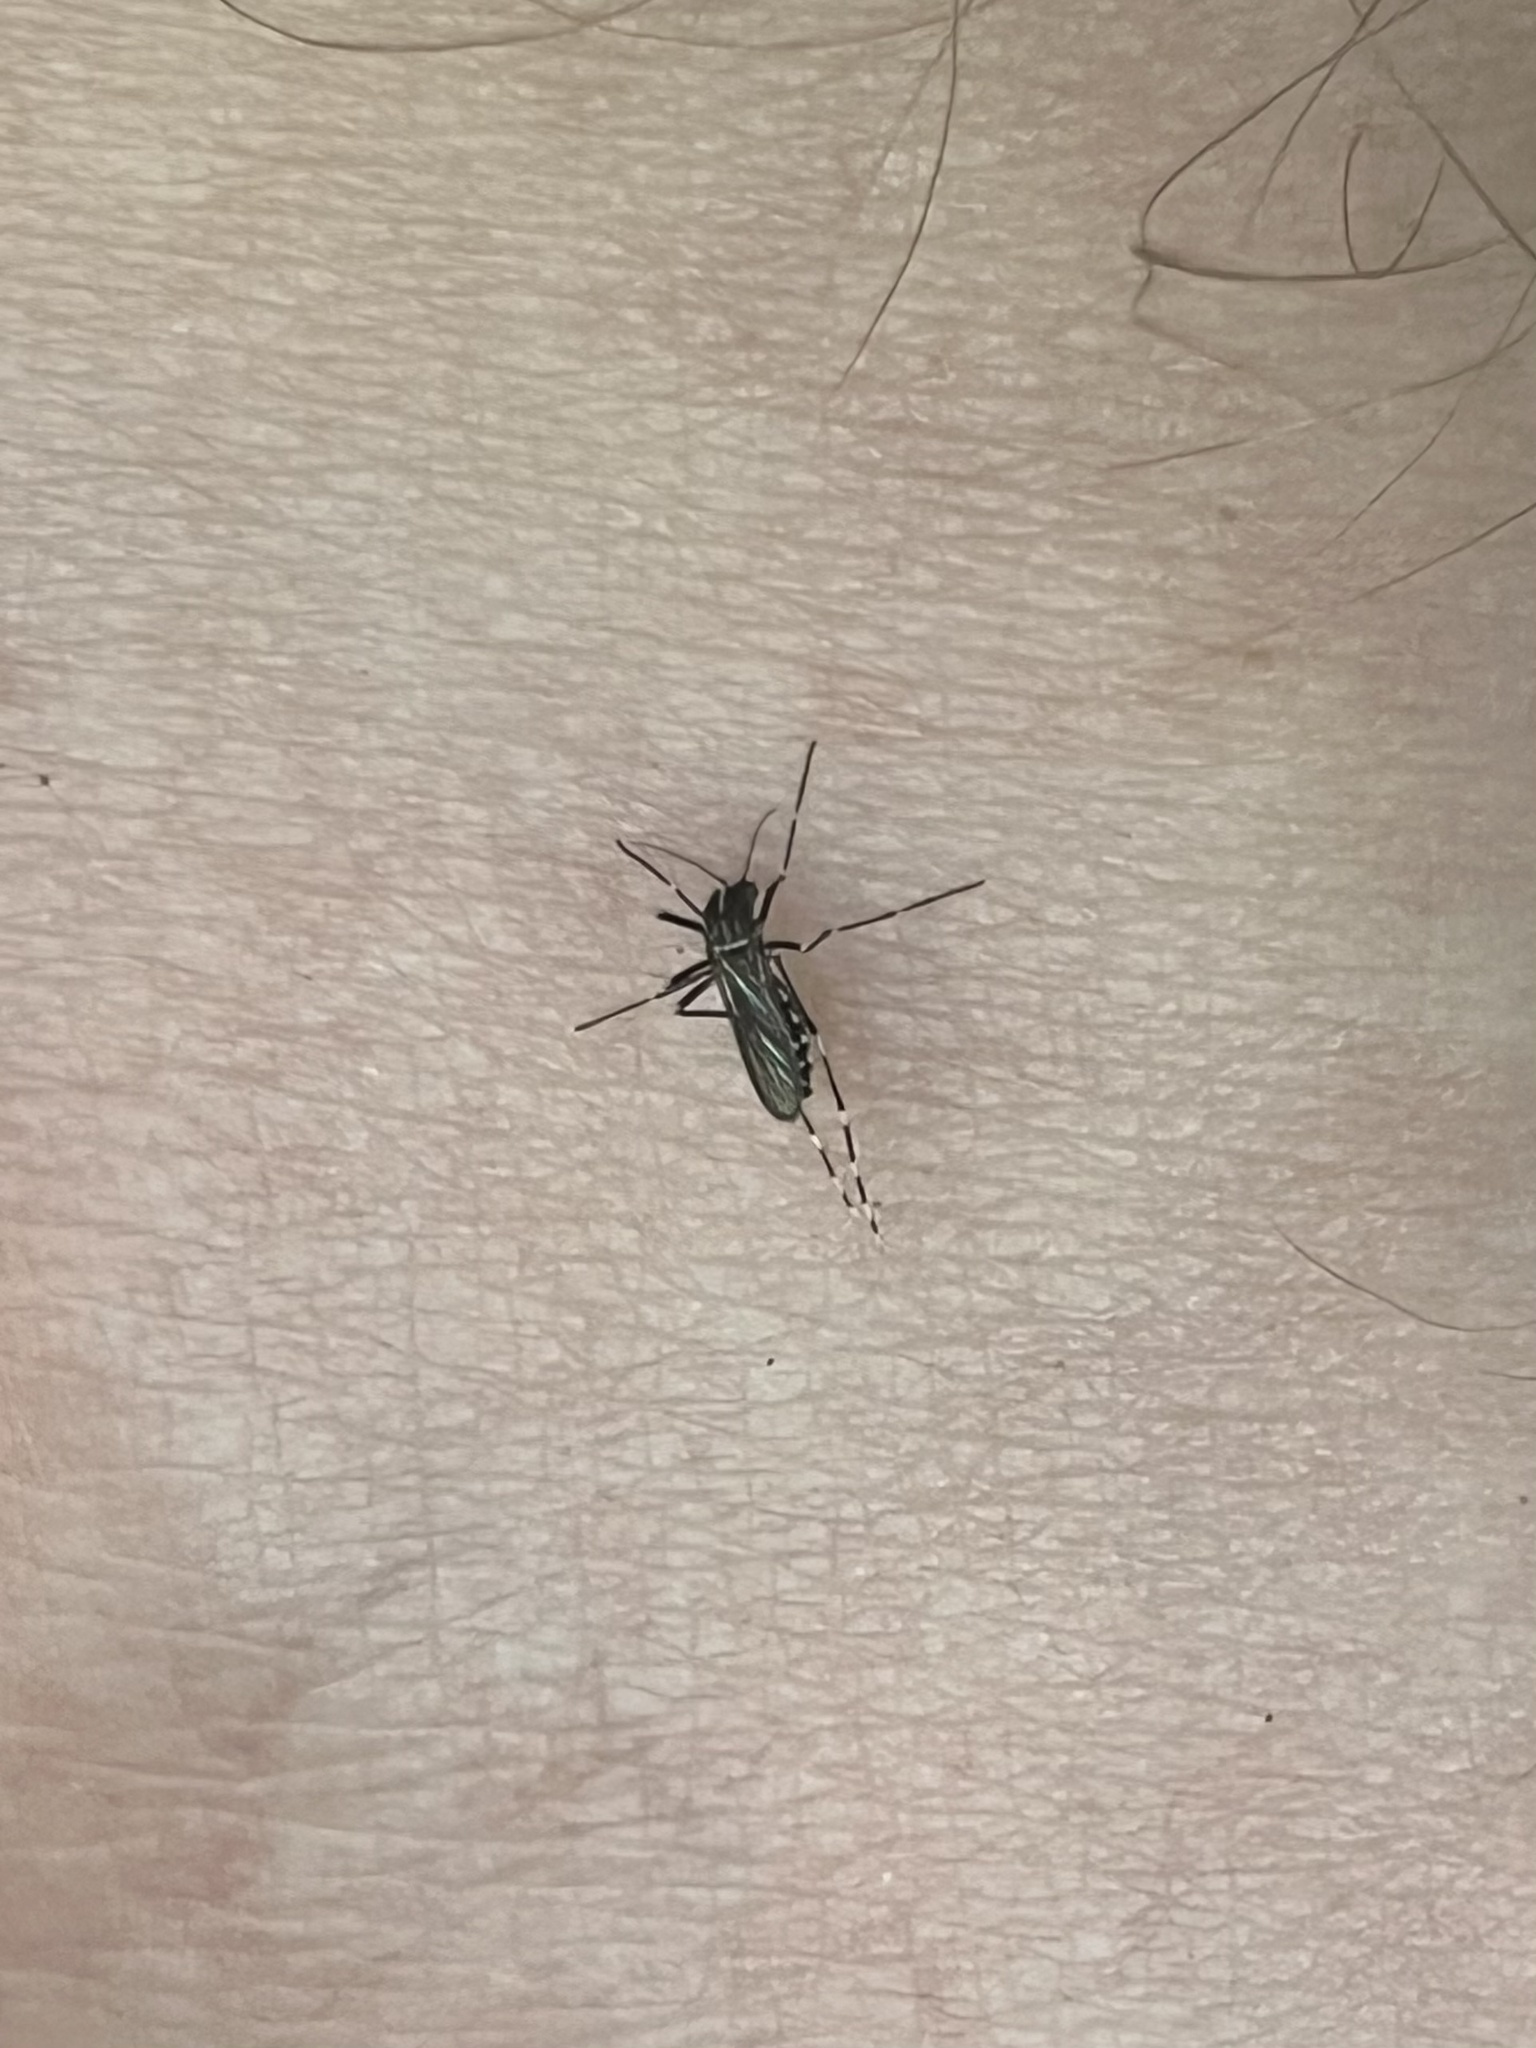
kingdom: Animalia
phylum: Arthropoda
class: Insecta
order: Diptera
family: Culicidae
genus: Aedes
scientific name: Aedes albopictus
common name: Tiger mosquito
